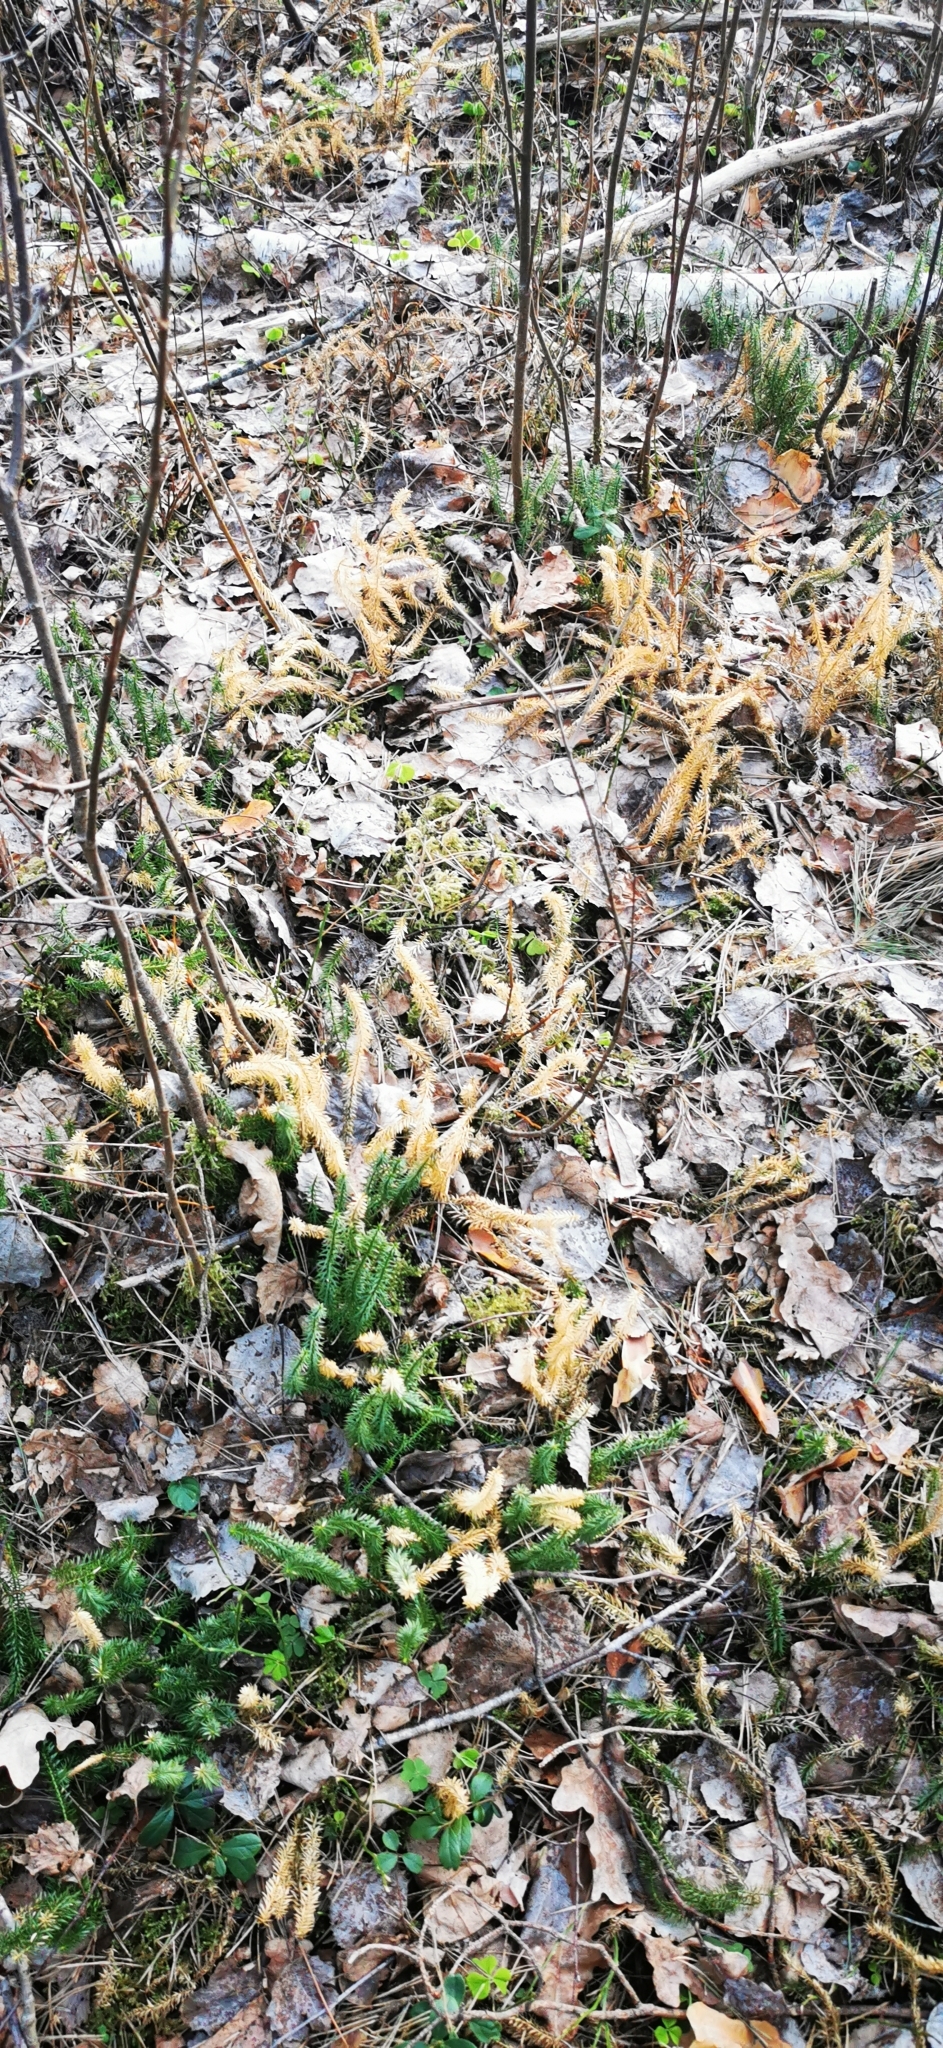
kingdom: Plantae
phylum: Tracheophyta
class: Lycopodiopsida
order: Lycopodiales
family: Lycopodiaceae
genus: Spinulum
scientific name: Spinulum annotinum
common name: Interrupted club-moss
